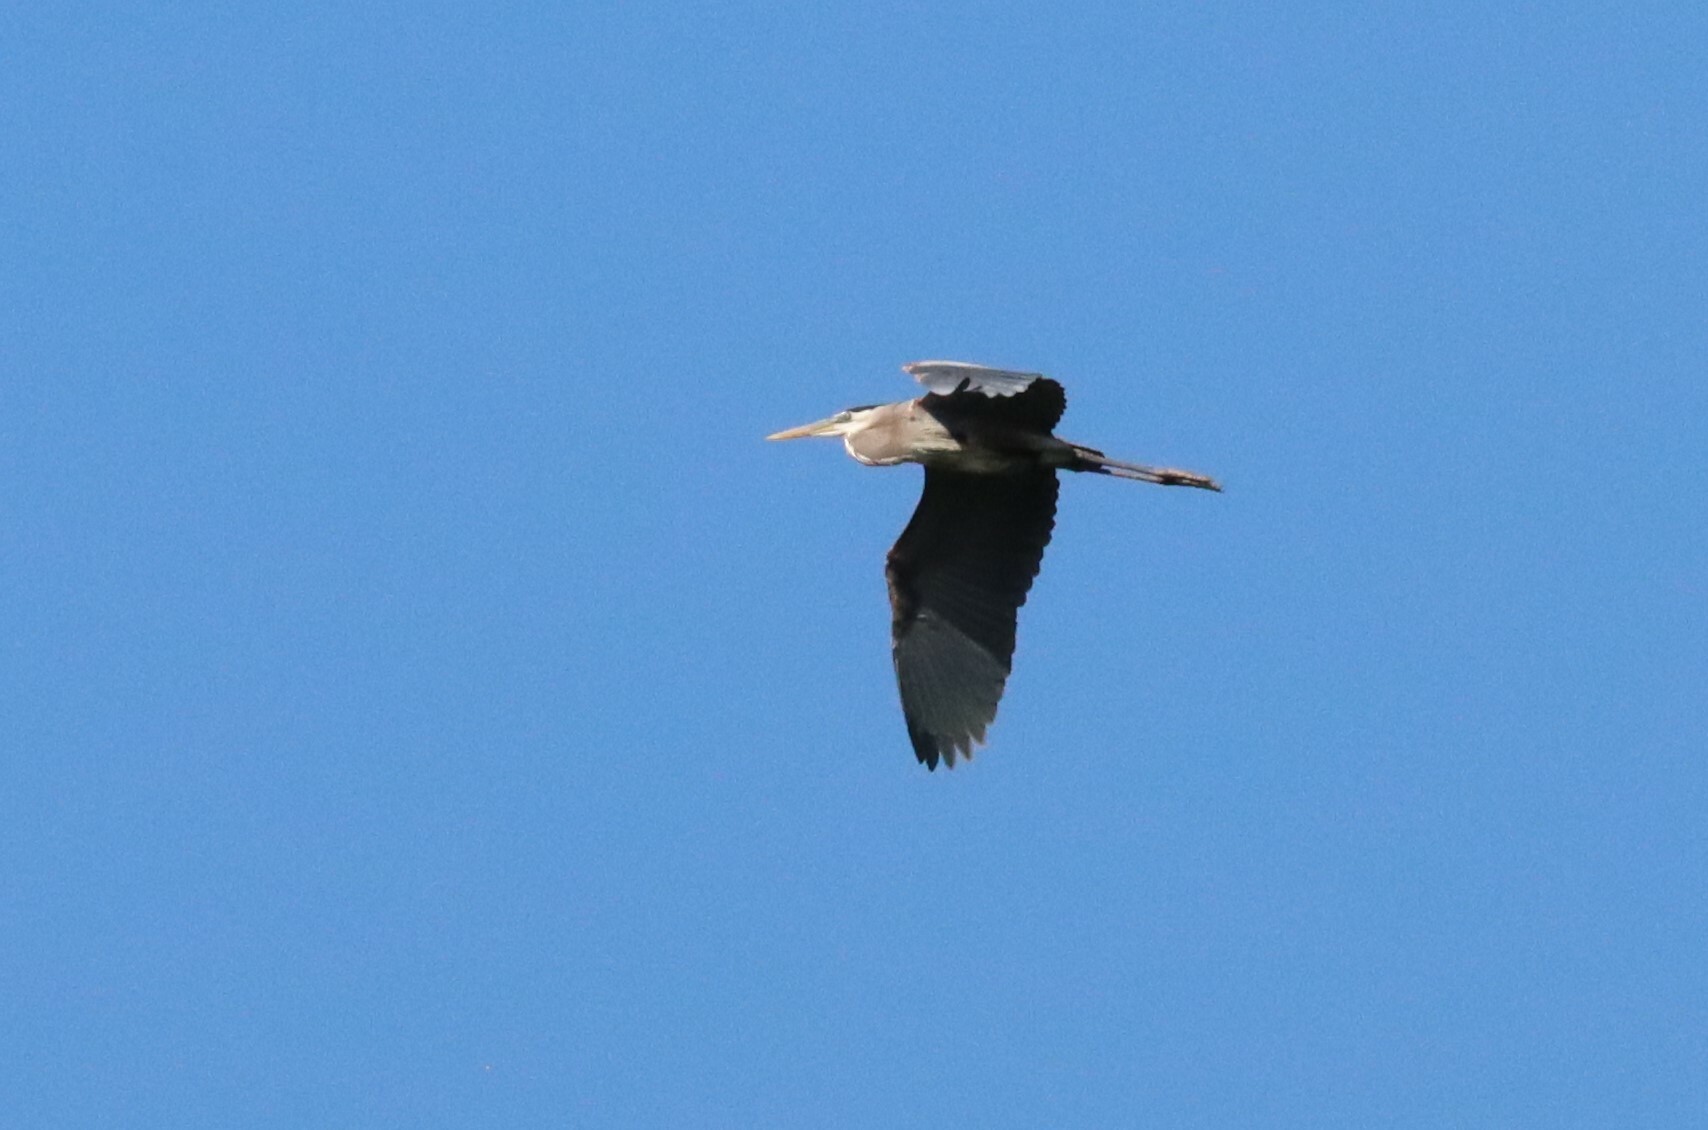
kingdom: Animalia
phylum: Chordata
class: Aves
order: Pelecaniformes
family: Ardeidae
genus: Ardea
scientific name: Ardea herodias
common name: Great blue heron
